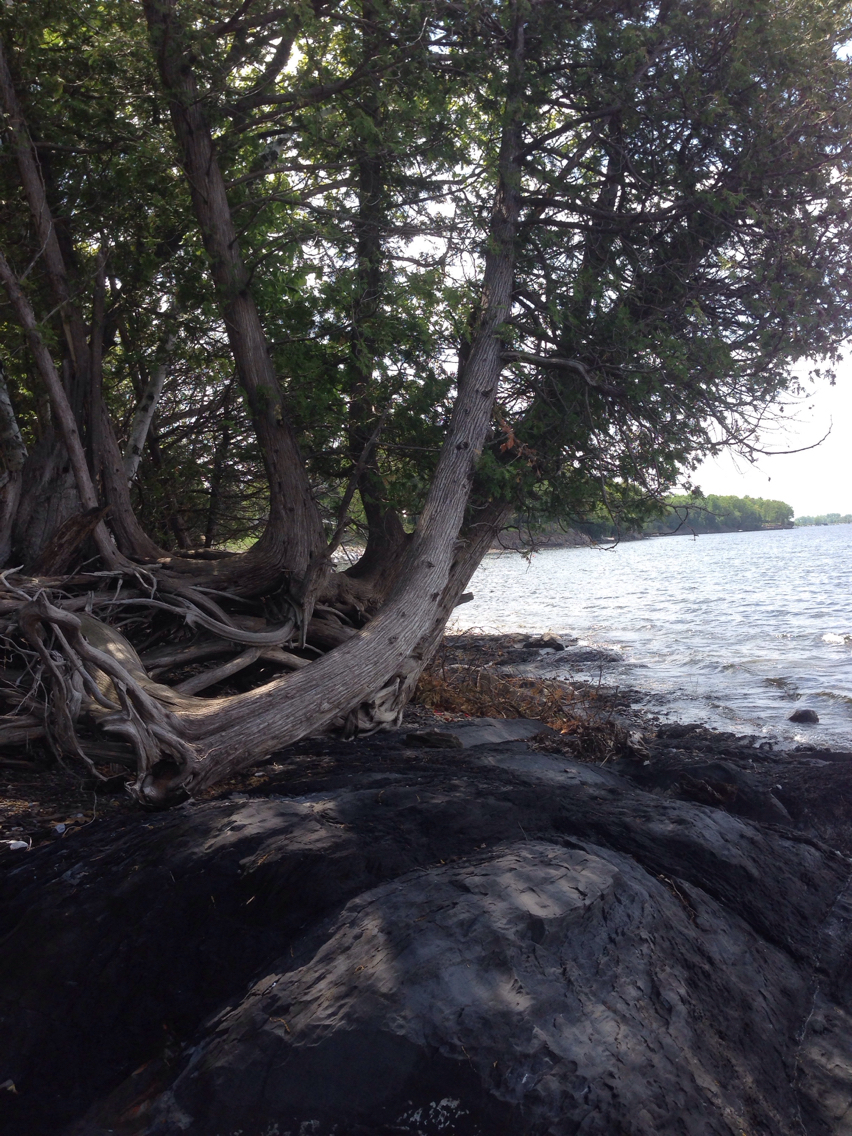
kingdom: Plantae
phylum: Tracheophyta
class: Pinopsida
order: Pinales
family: Cupressaceae
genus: Thuja
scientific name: Thuja occidentalis
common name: Northern white-cedar
